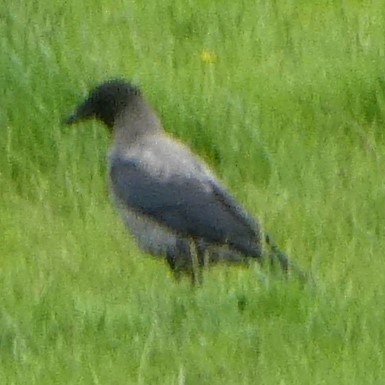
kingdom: Animalia
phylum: Chordata
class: Aves
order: Passeriformes
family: Corvidae
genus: Corvus
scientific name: Corvus cornix
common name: Hooded crow
